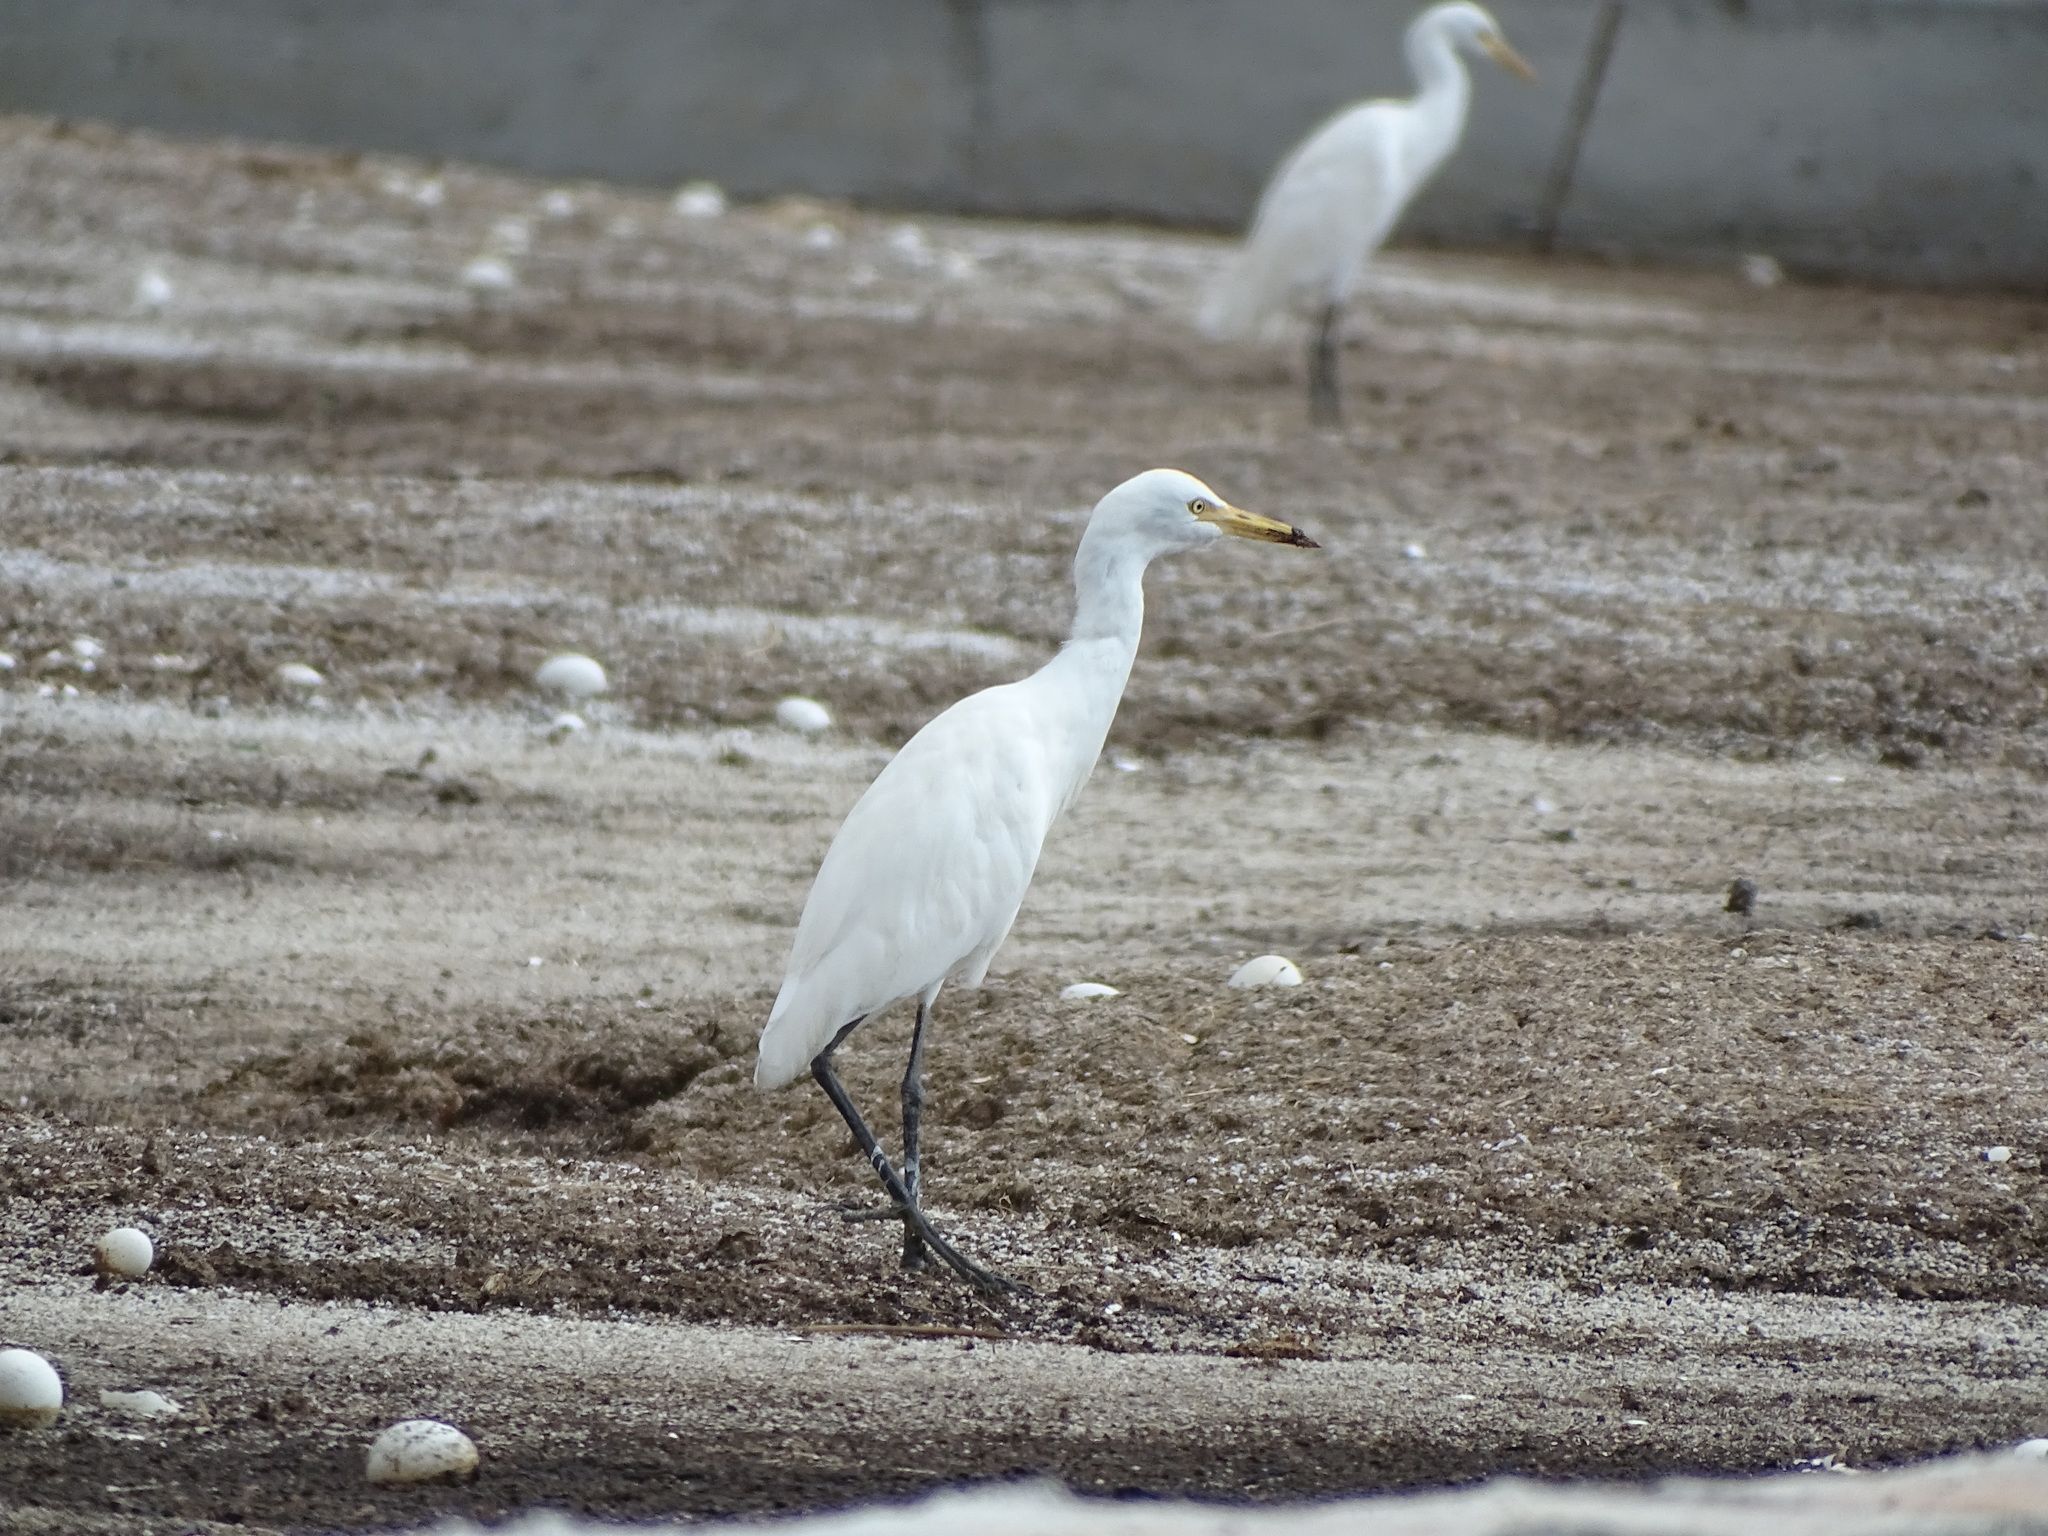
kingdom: Animalia
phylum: Chordata
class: Aves
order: Pelecaniformes
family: Ardeidae
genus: Bubulcus
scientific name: Bubulcus coromandus
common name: Eastern cattle egret
